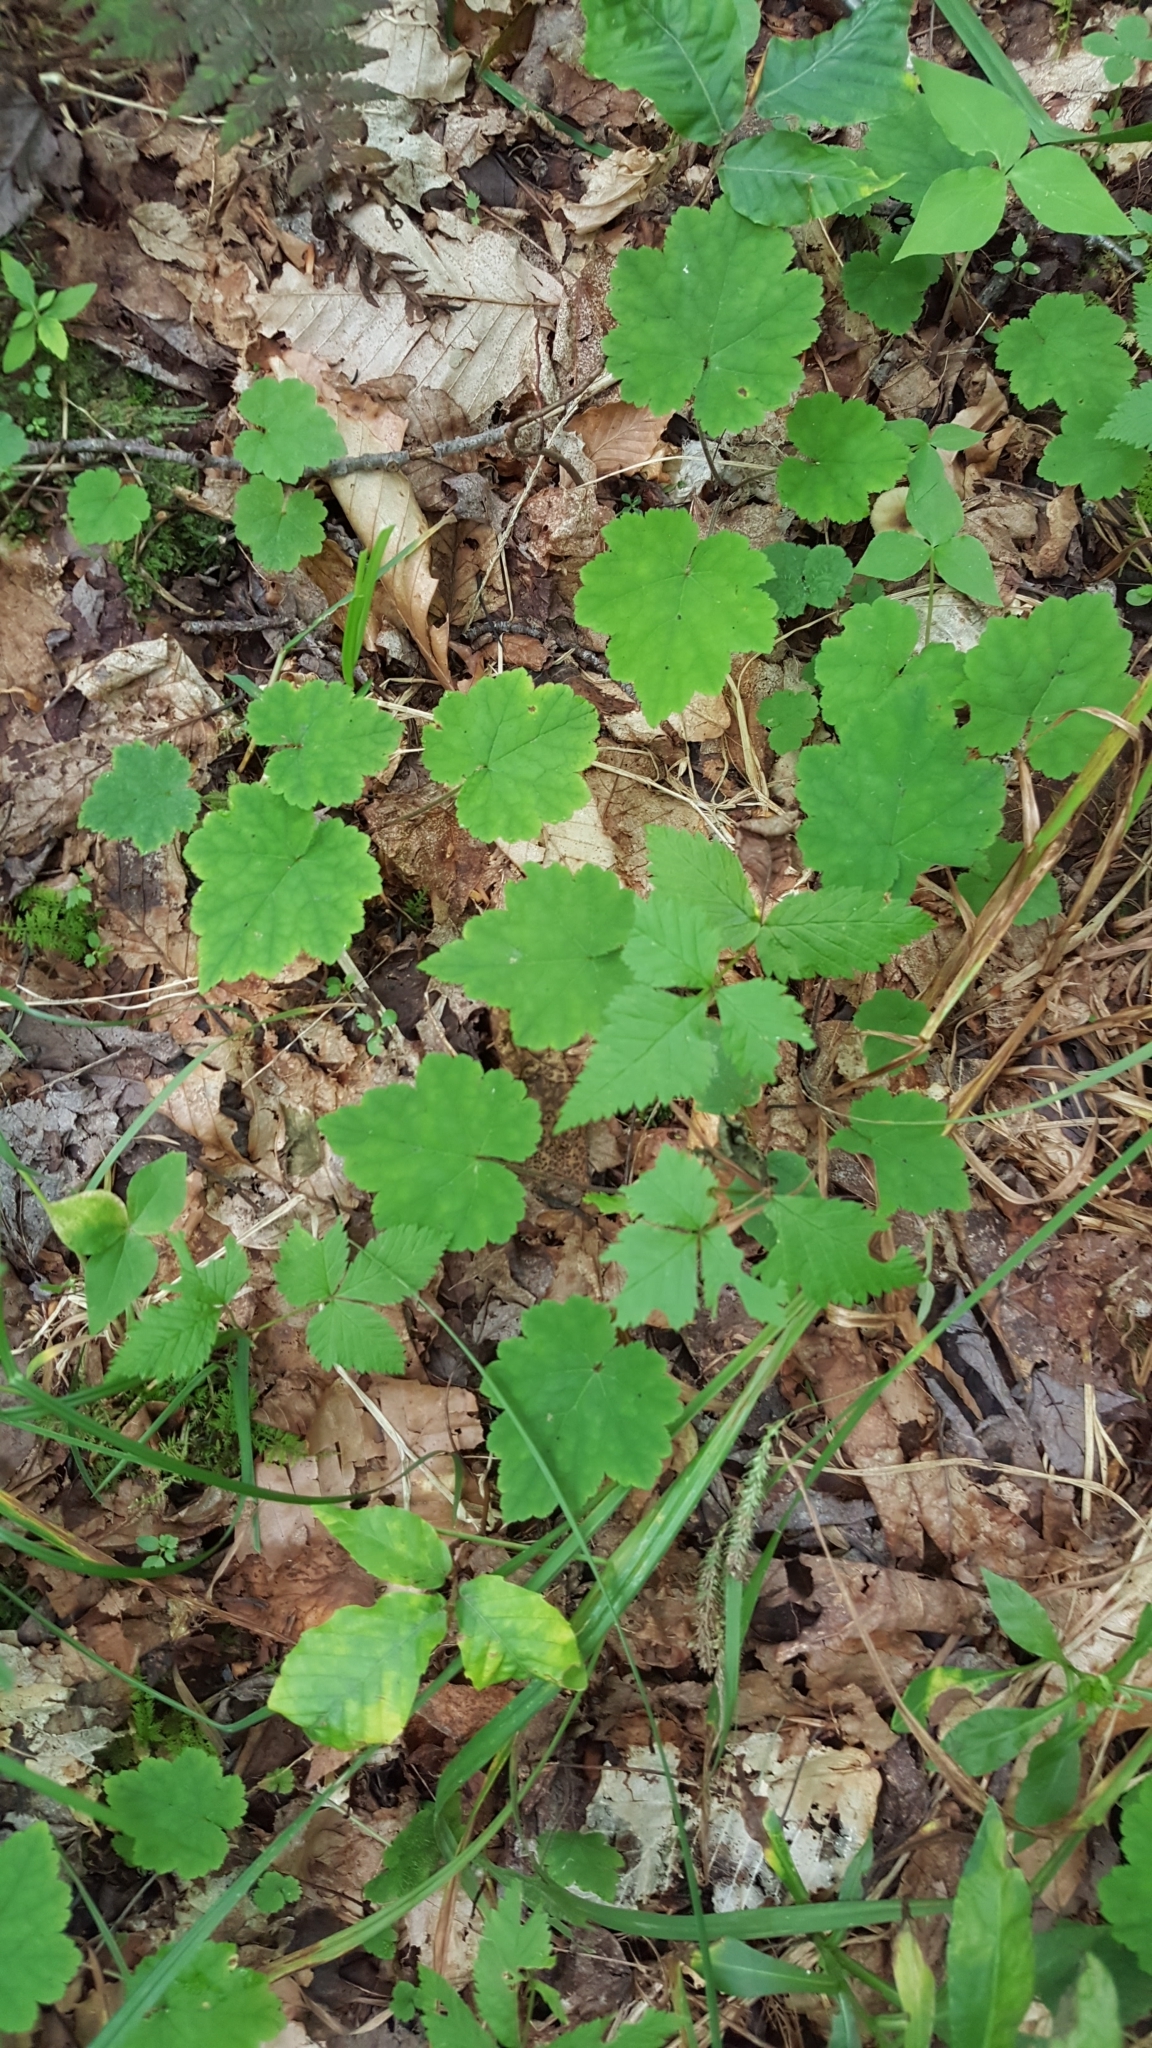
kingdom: Plantae
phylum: Tracheophyta
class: Magnoliopsida
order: Saxifragales
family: Saxifragaceae
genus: Tiarella
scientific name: Tiarella stolonifera
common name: Stoloniferous foamflower
